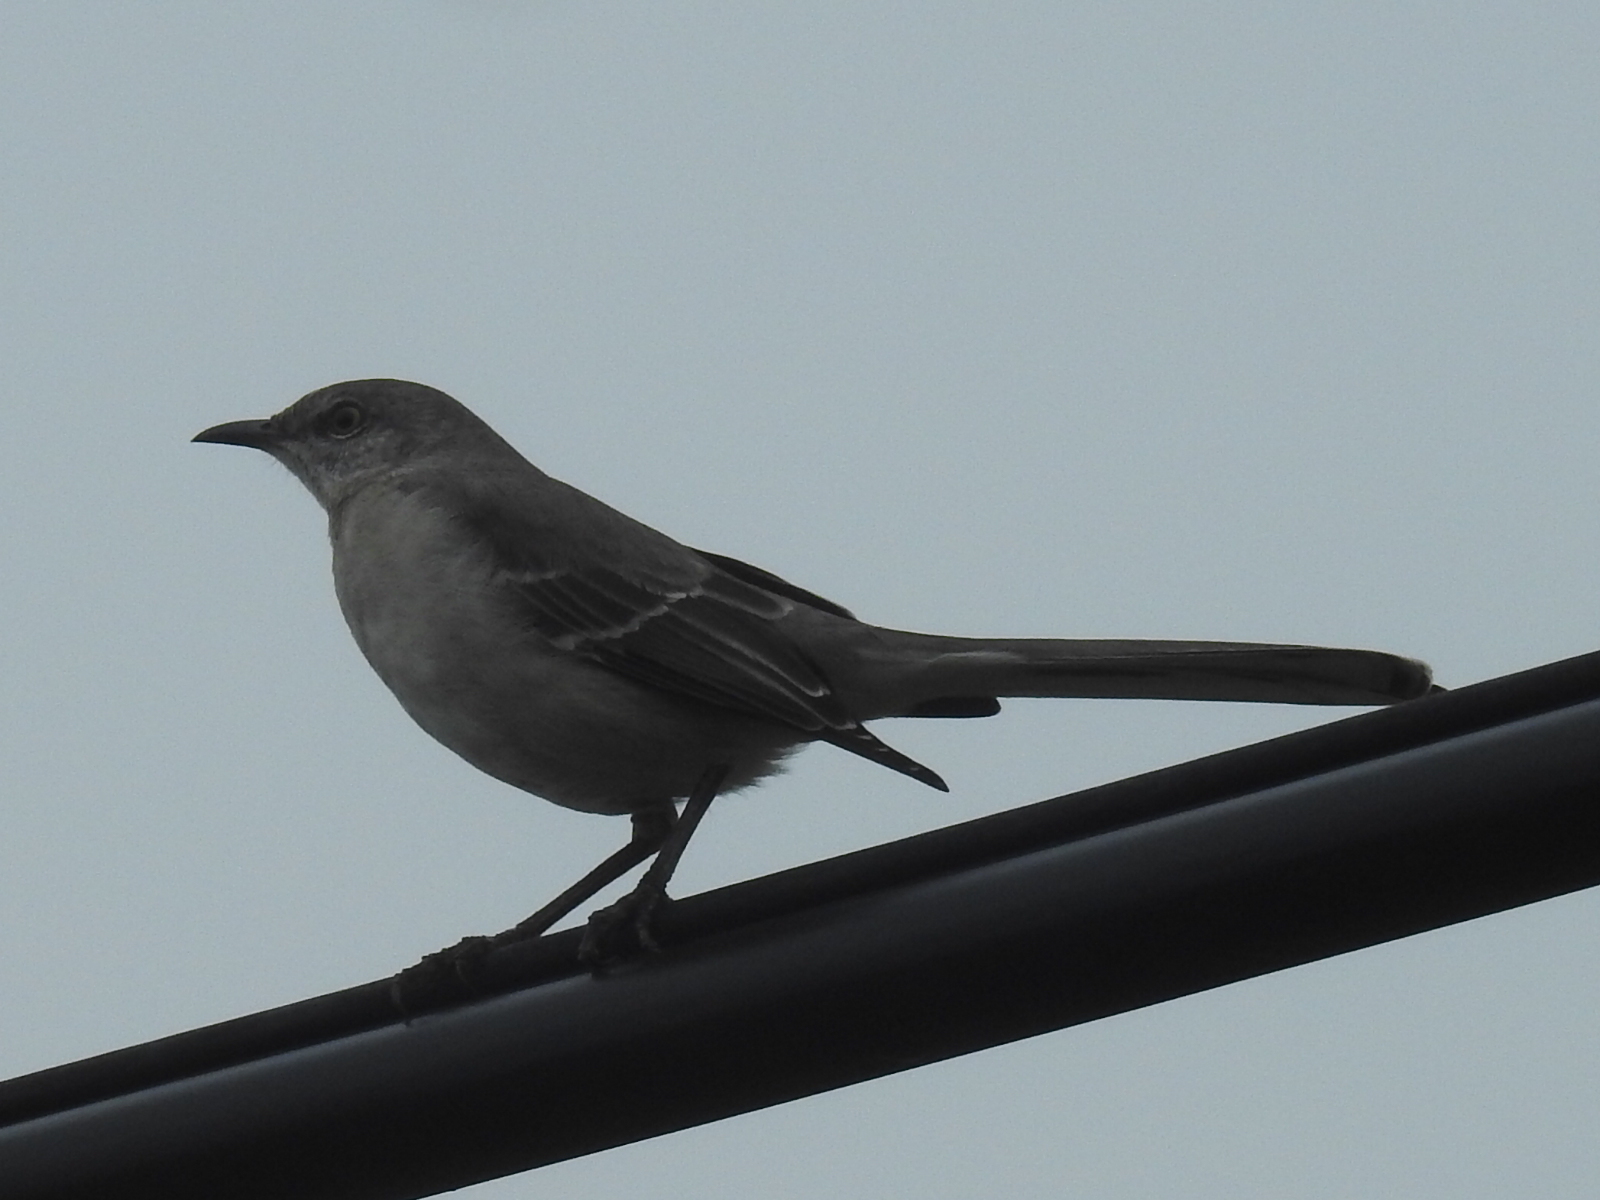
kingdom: Animalia
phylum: Chordata
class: Aves
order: Passeriformes
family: Mimidae
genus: Mimus
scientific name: Mimus polyglottos
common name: Northern mockingbird
